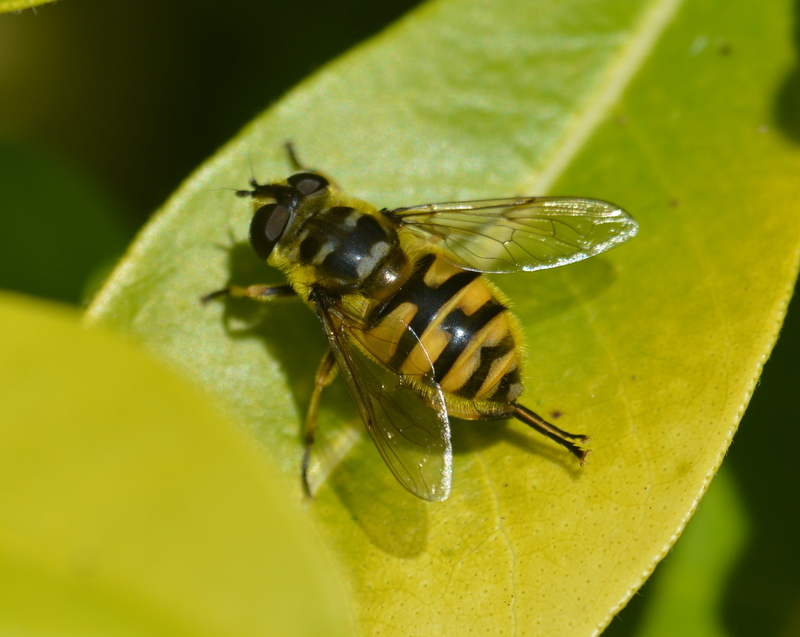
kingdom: Animalia
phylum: Arthropoda
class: Insecta
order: Diptera
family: Syrphidae
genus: Myathropa
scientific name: Myathropa florea
